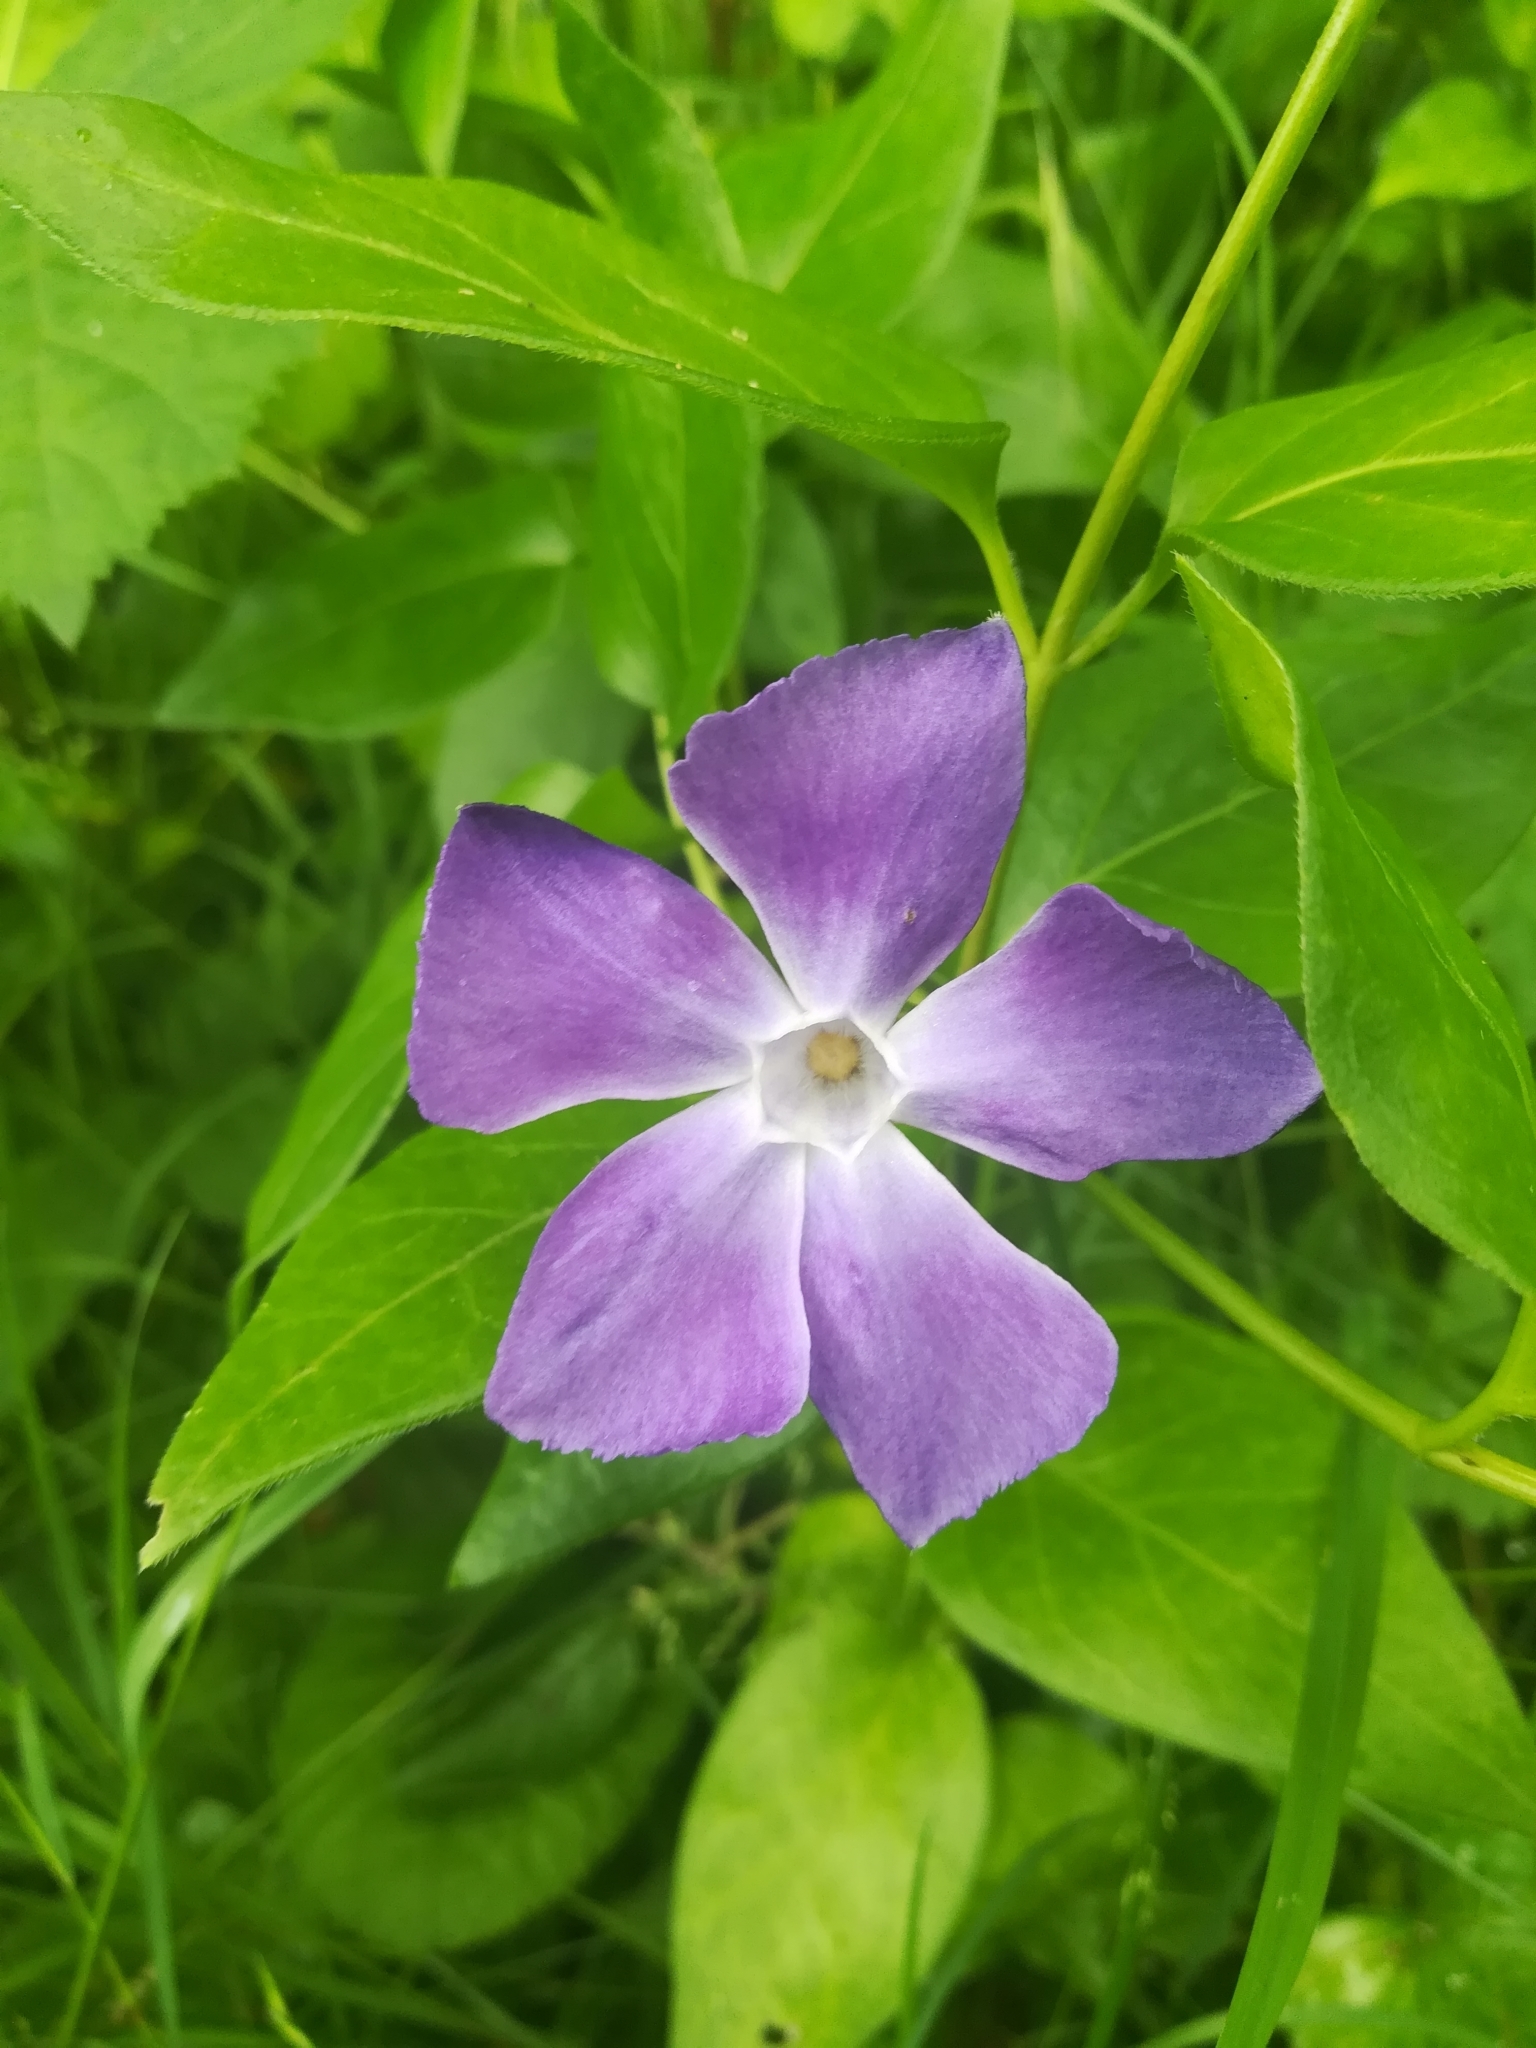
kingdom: Plantae
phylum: Tracheophyta
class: Magnoliopsida
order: Gentianales
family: Apocynaceae
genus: Vinca
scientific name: Vinca major
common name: Greater periwinkle
